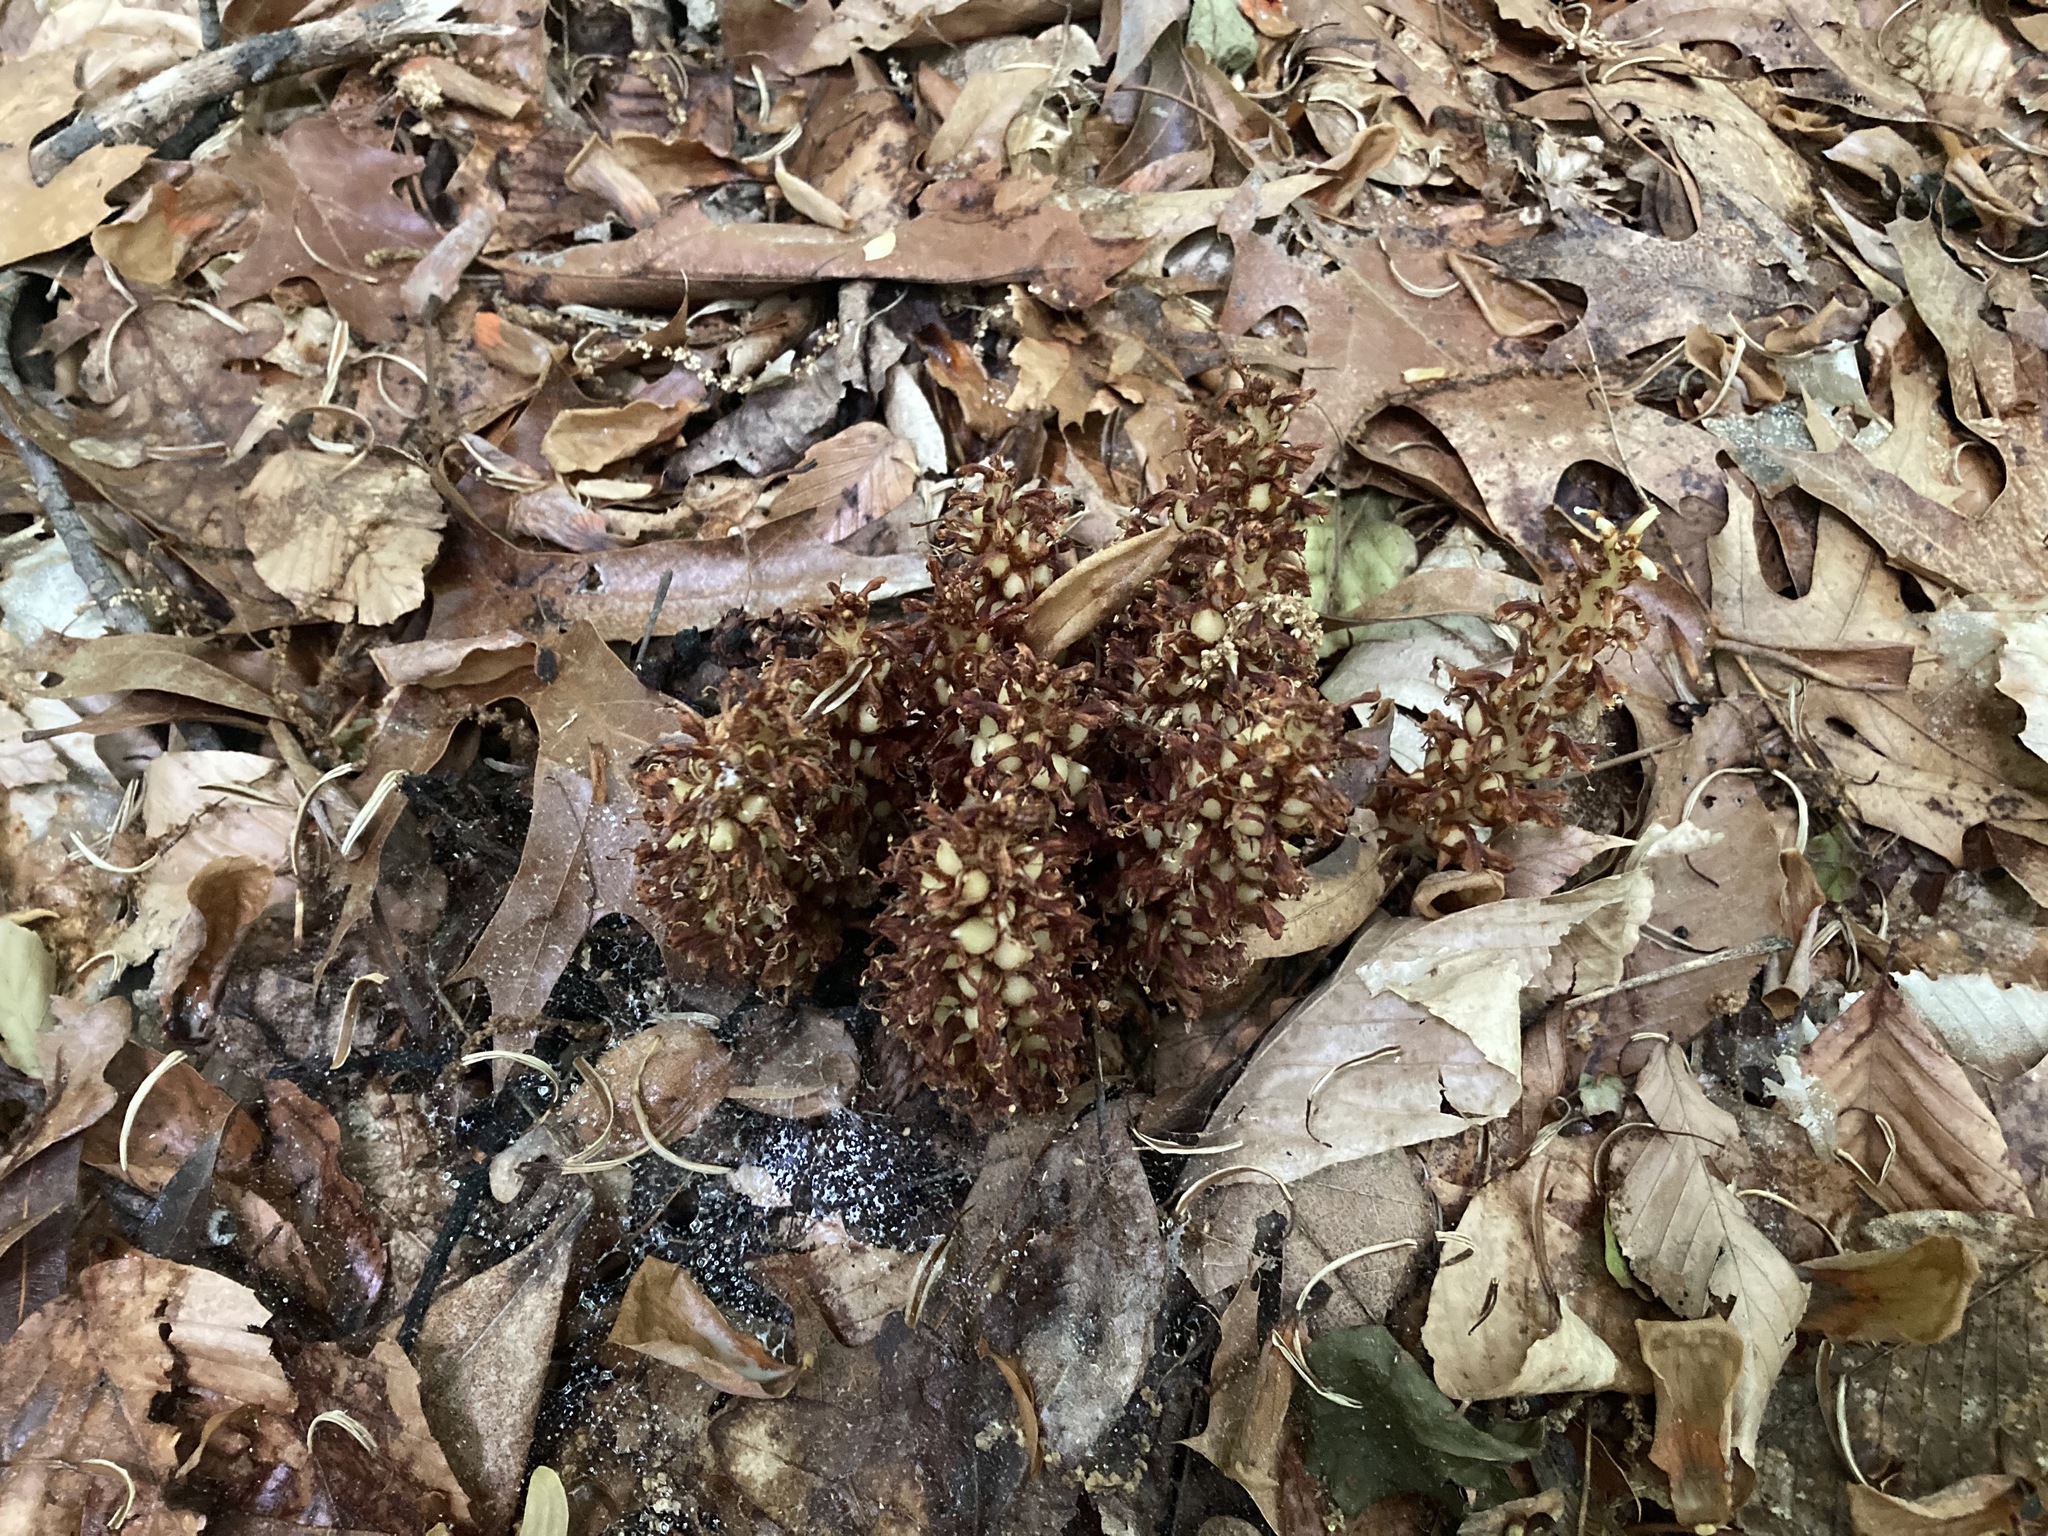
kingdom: Plantae
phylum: Tracheophyta
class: Magnoliopsida
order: Lamiales
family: Orobanchaceae
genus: Conopholis
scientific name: Conopholis americana
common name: American cancer-root
